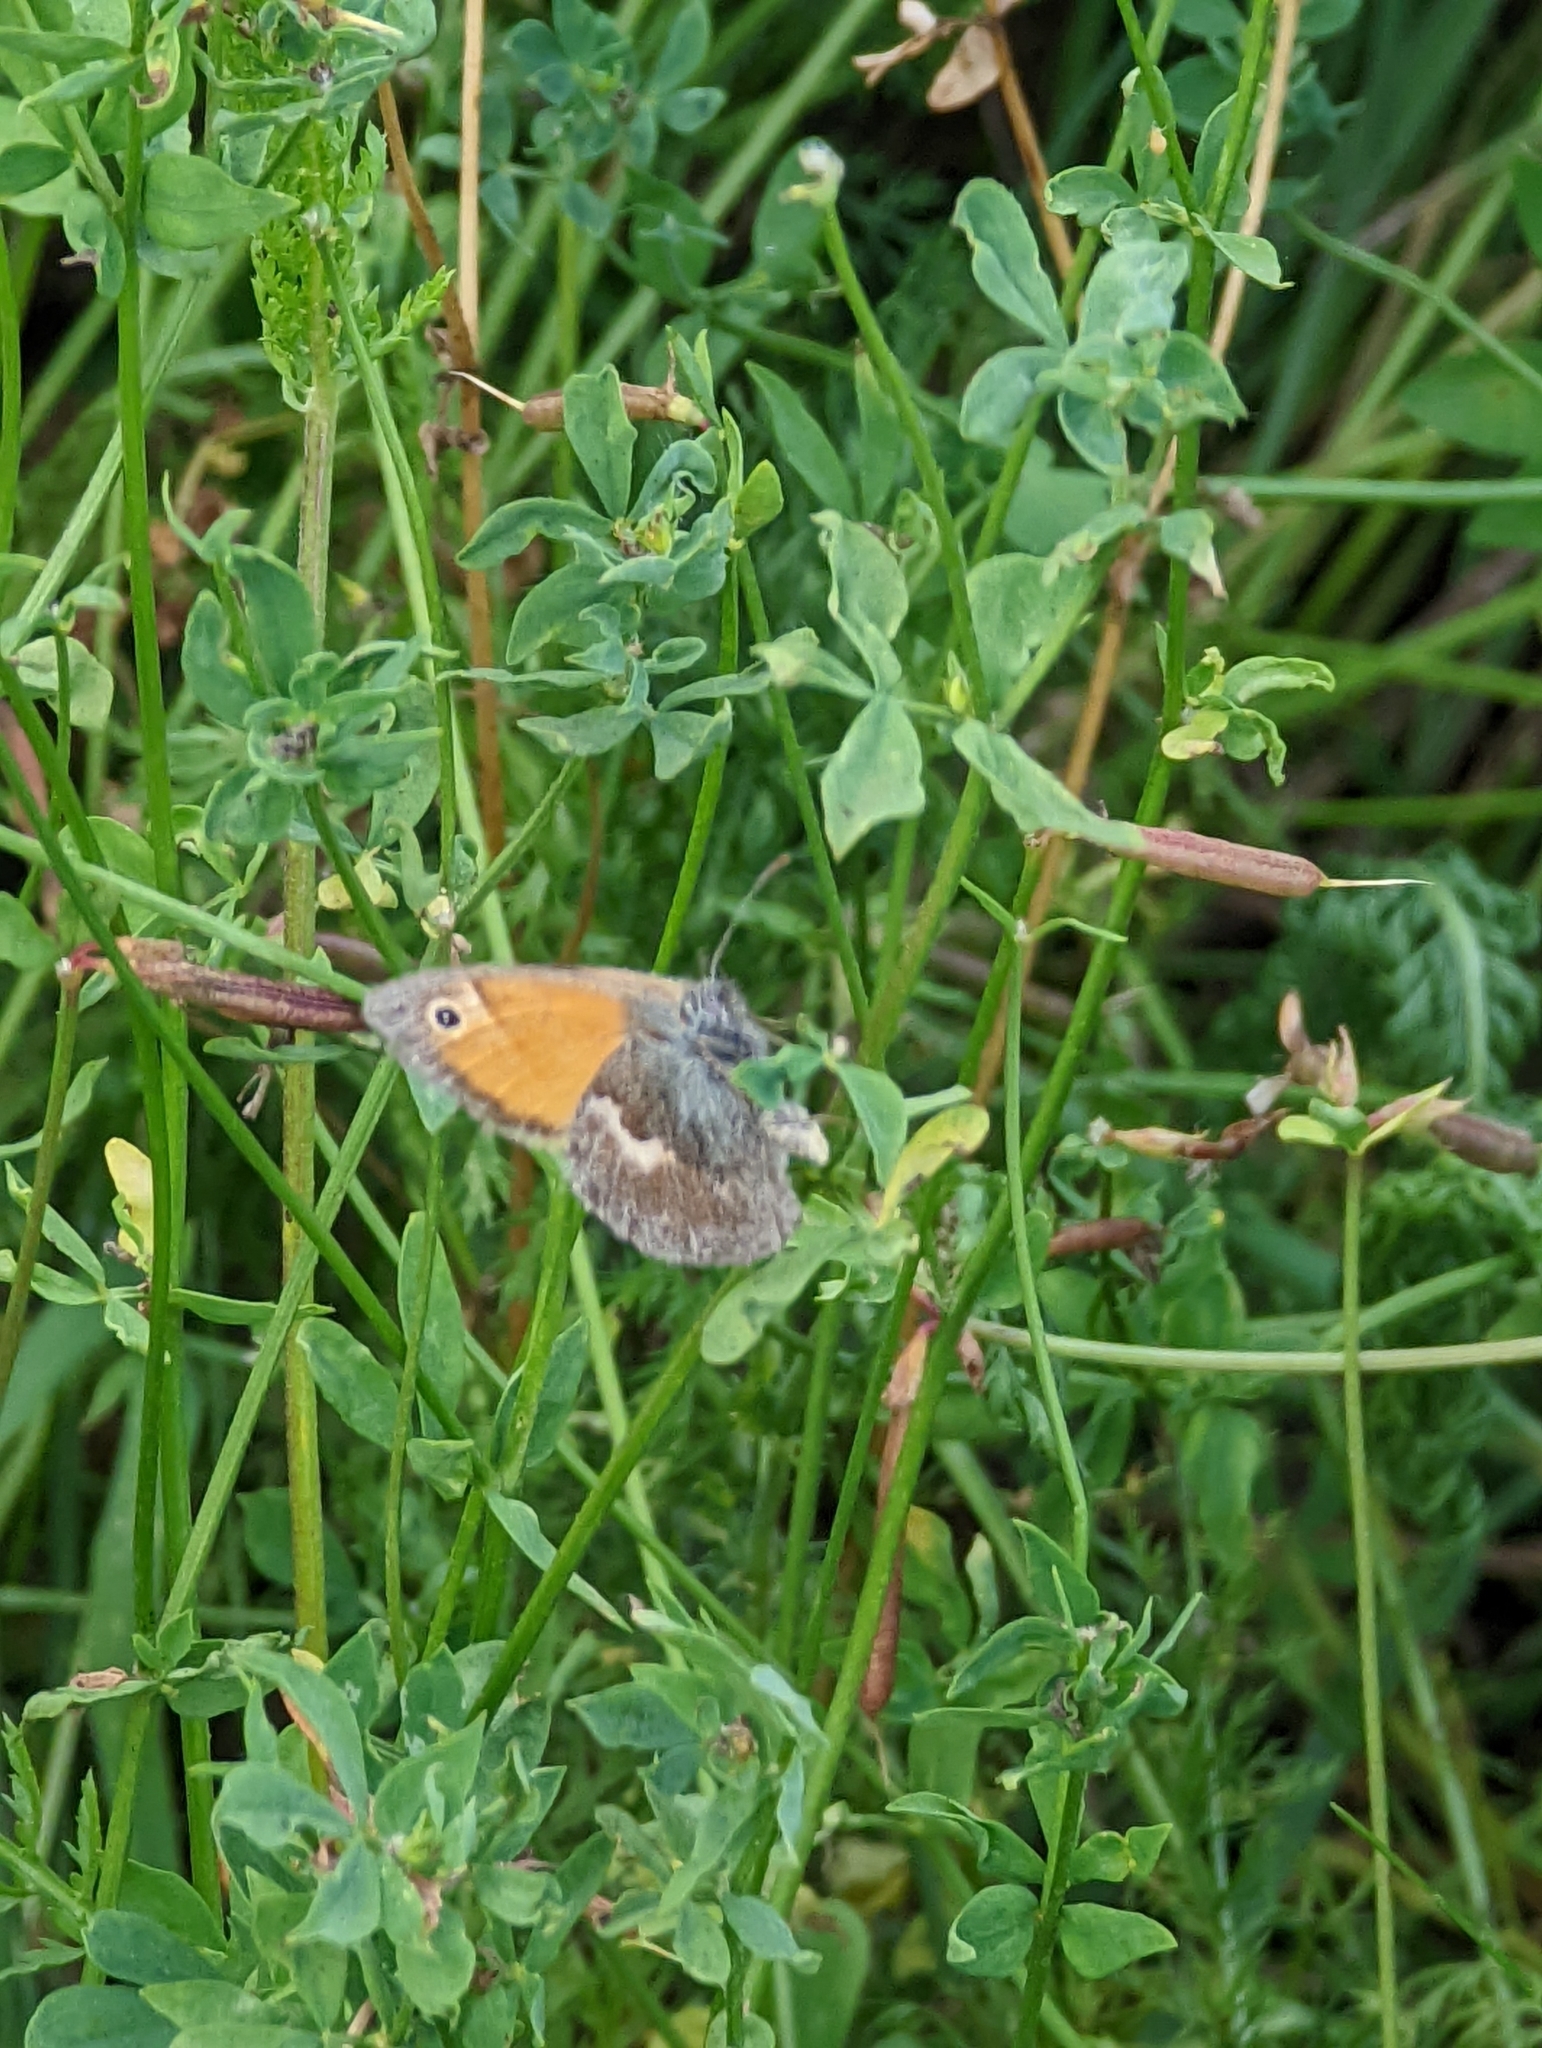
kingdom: Animalia
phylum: Arthropoda
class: Insecta
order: Lepidoptera
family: Nymphalidae
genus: Coenonympha
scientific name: Coenonympha pamphilus
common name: Small heath
